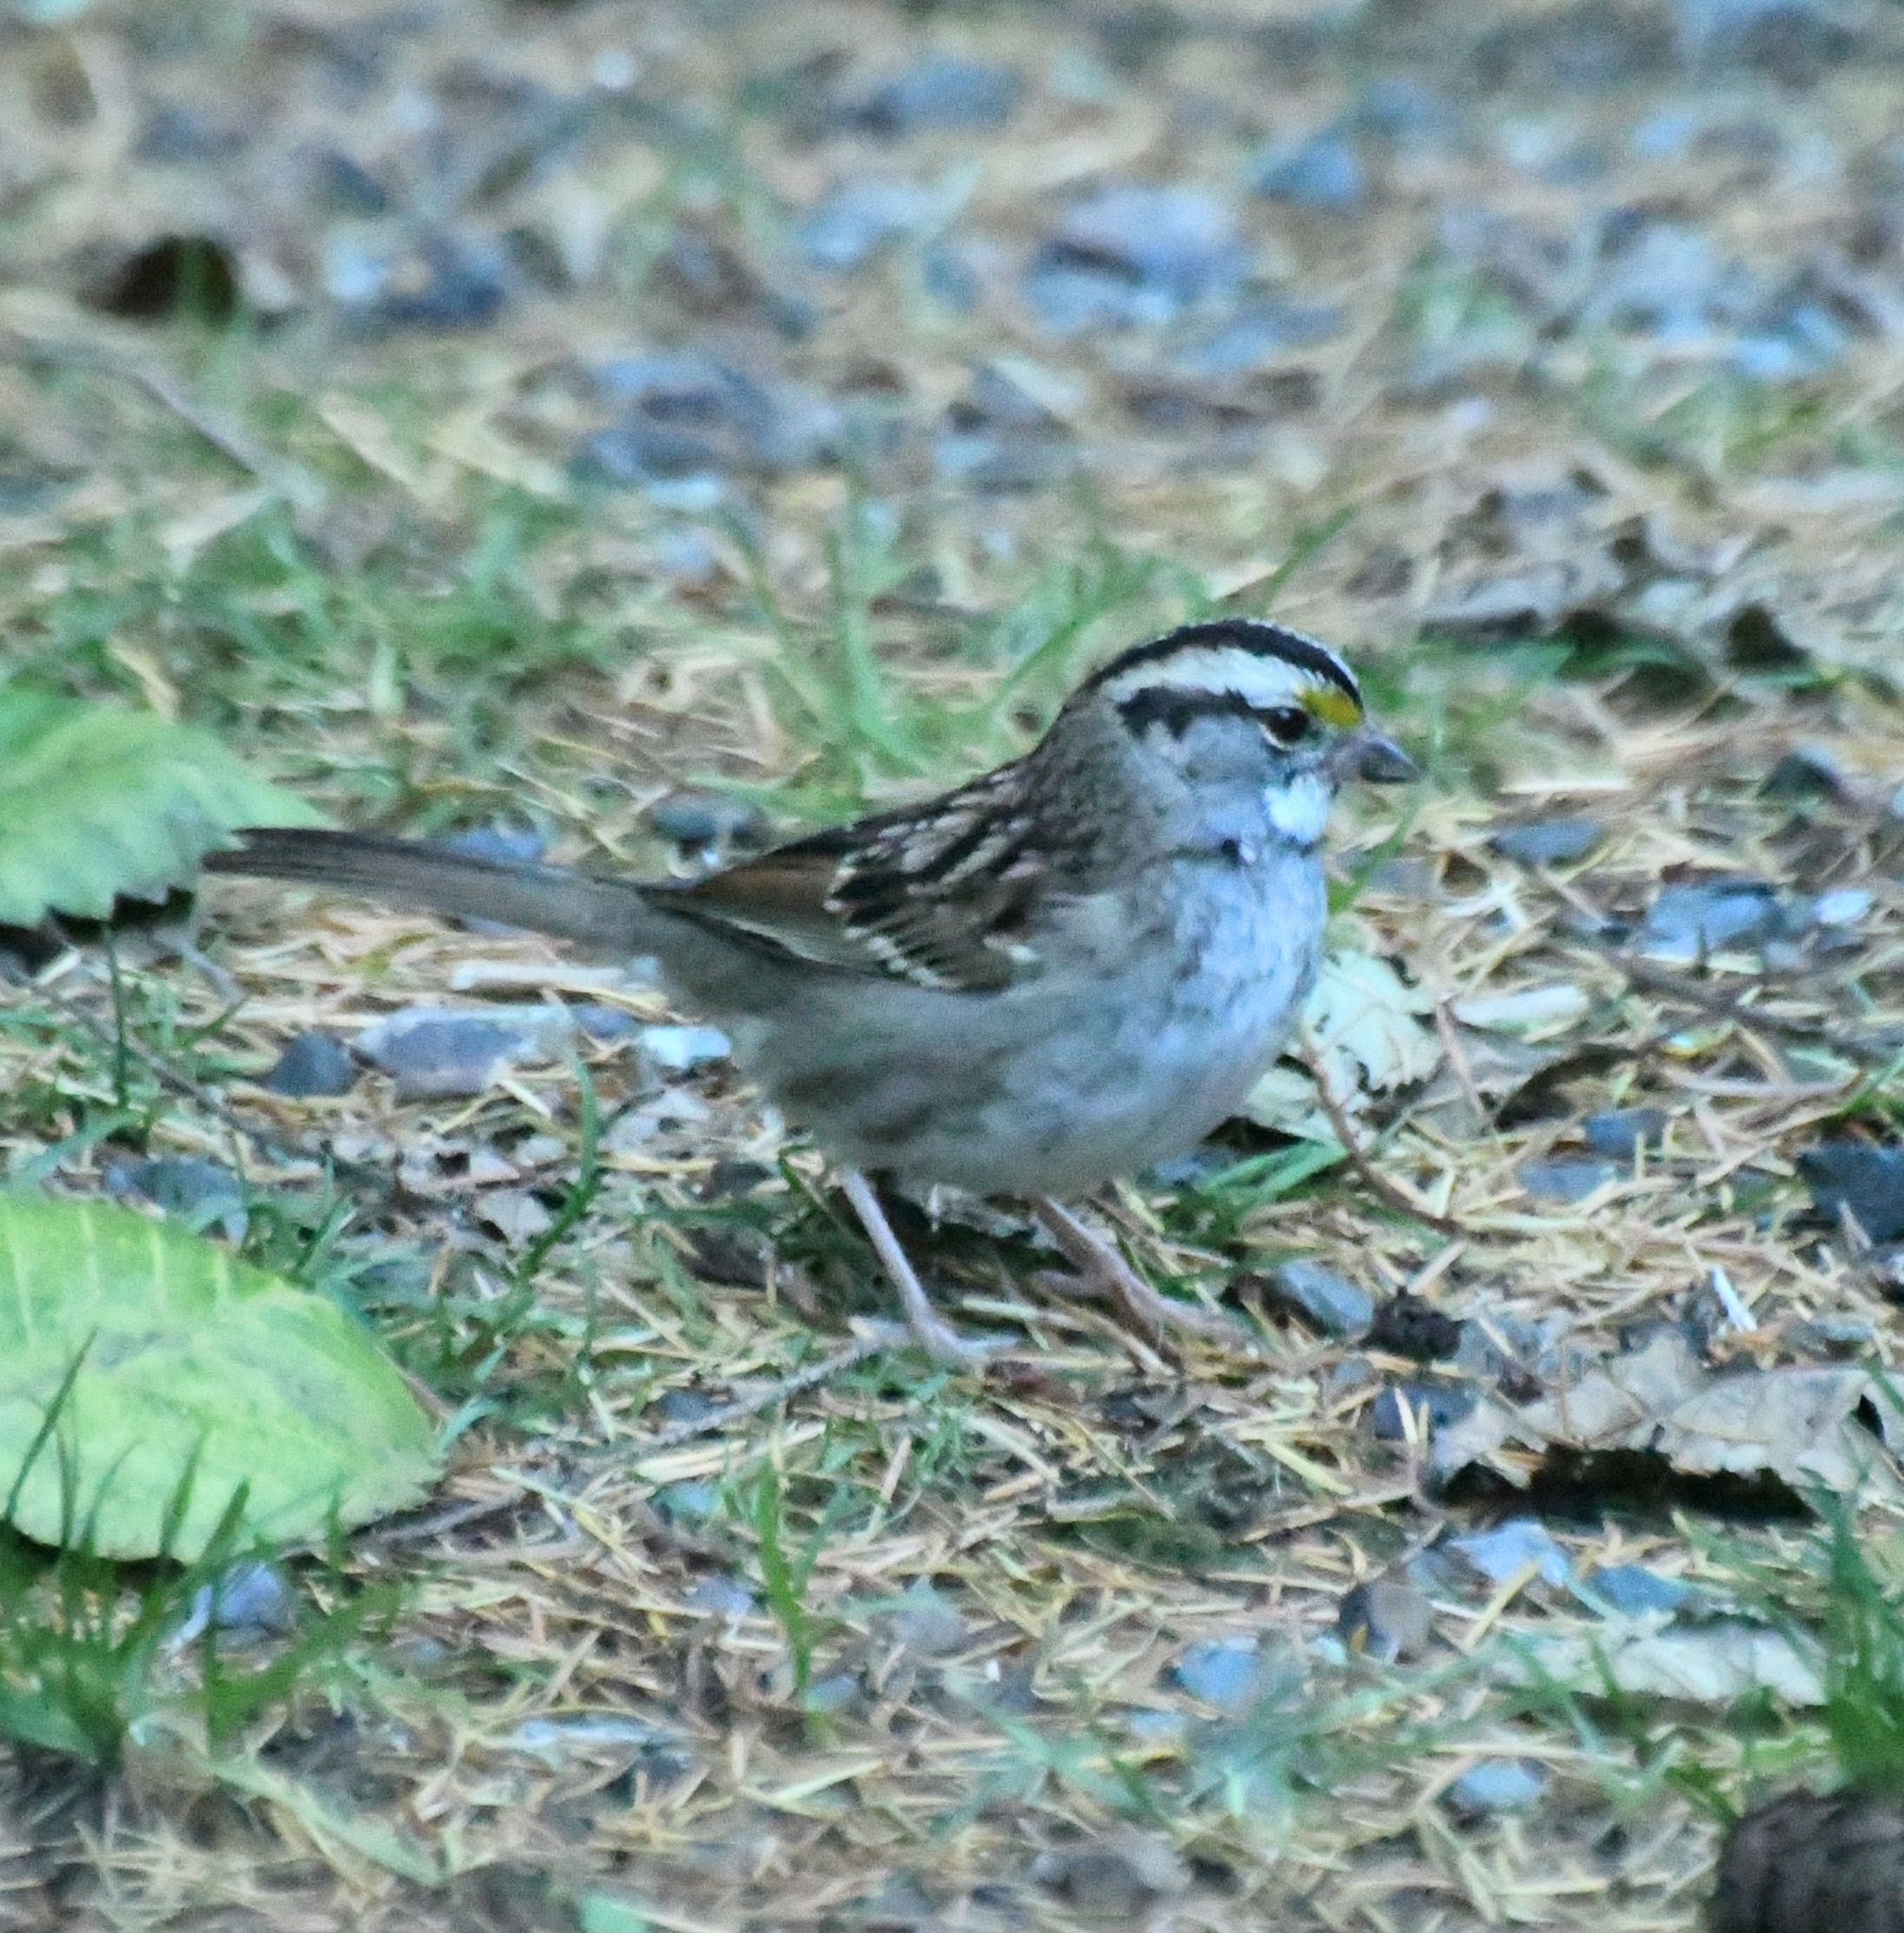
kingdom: Animalia
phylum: Chordata
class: Aves
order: Passeriformes
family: Passerellidae
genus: Zonotrichia
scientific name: Zonotrichia albicollis
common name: White-throated sparrow
